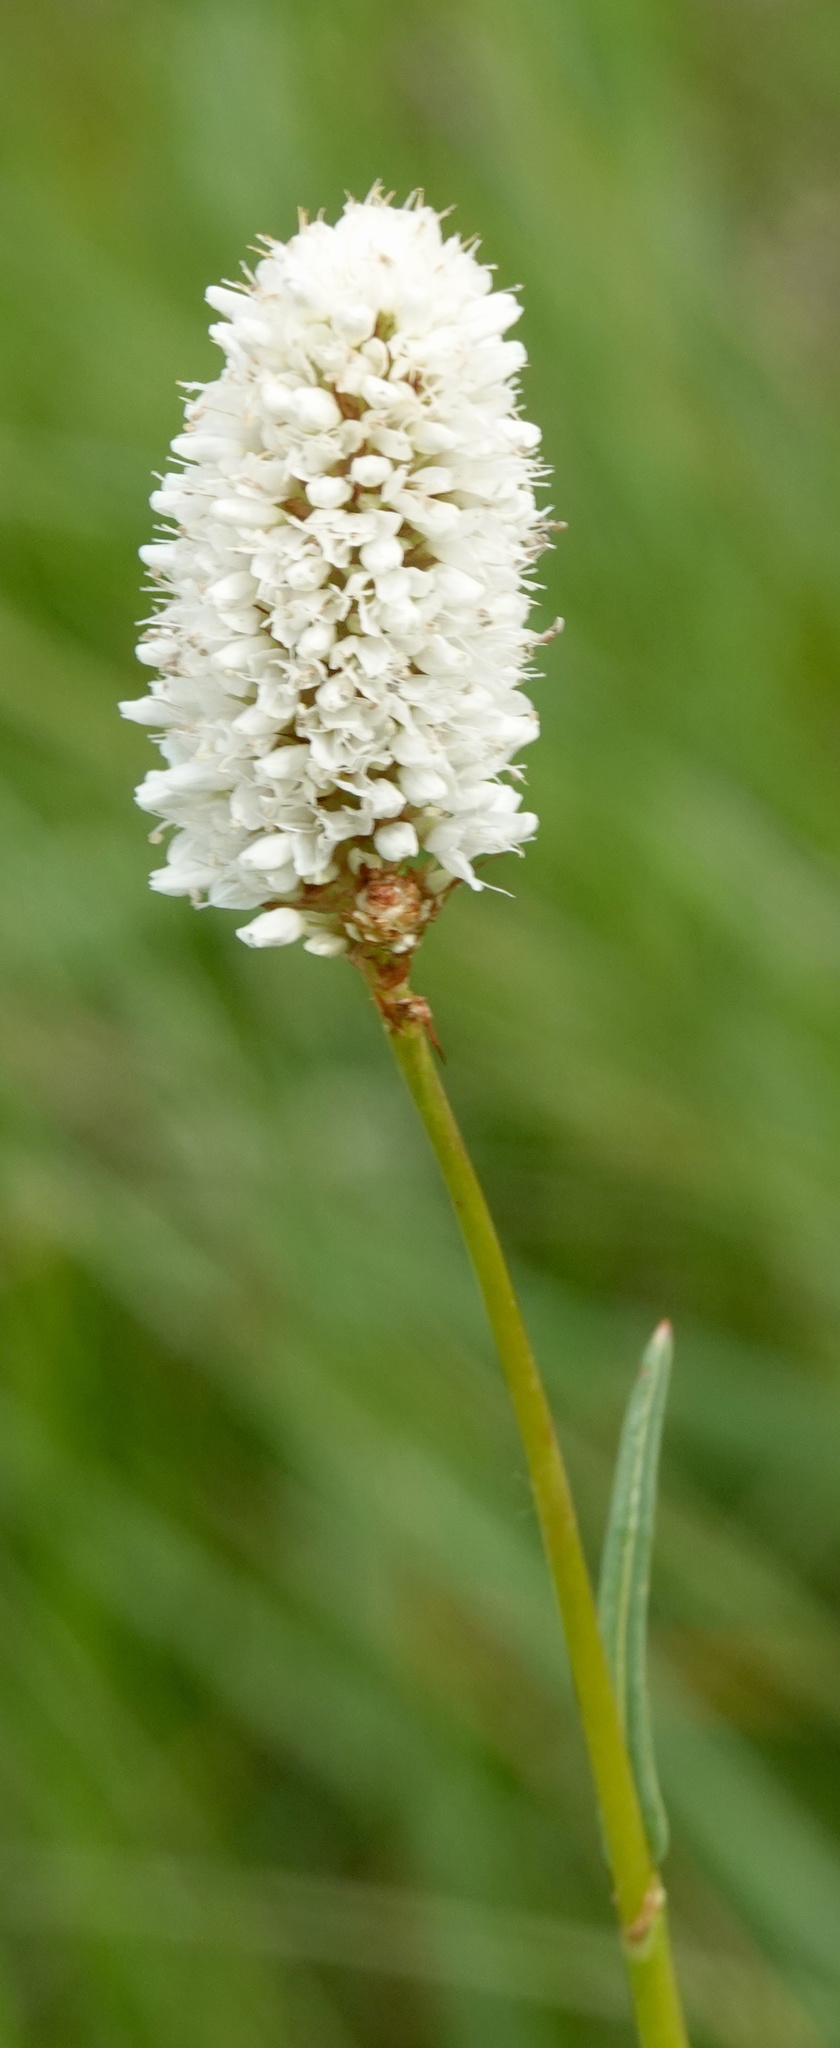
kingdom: Plantae
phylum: Tracheophyta
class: Magnoliopsida
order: Caryophyllales
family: Polygonaceae
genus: Bistorta
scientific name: Bistorta bistortoides
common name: American bistort
